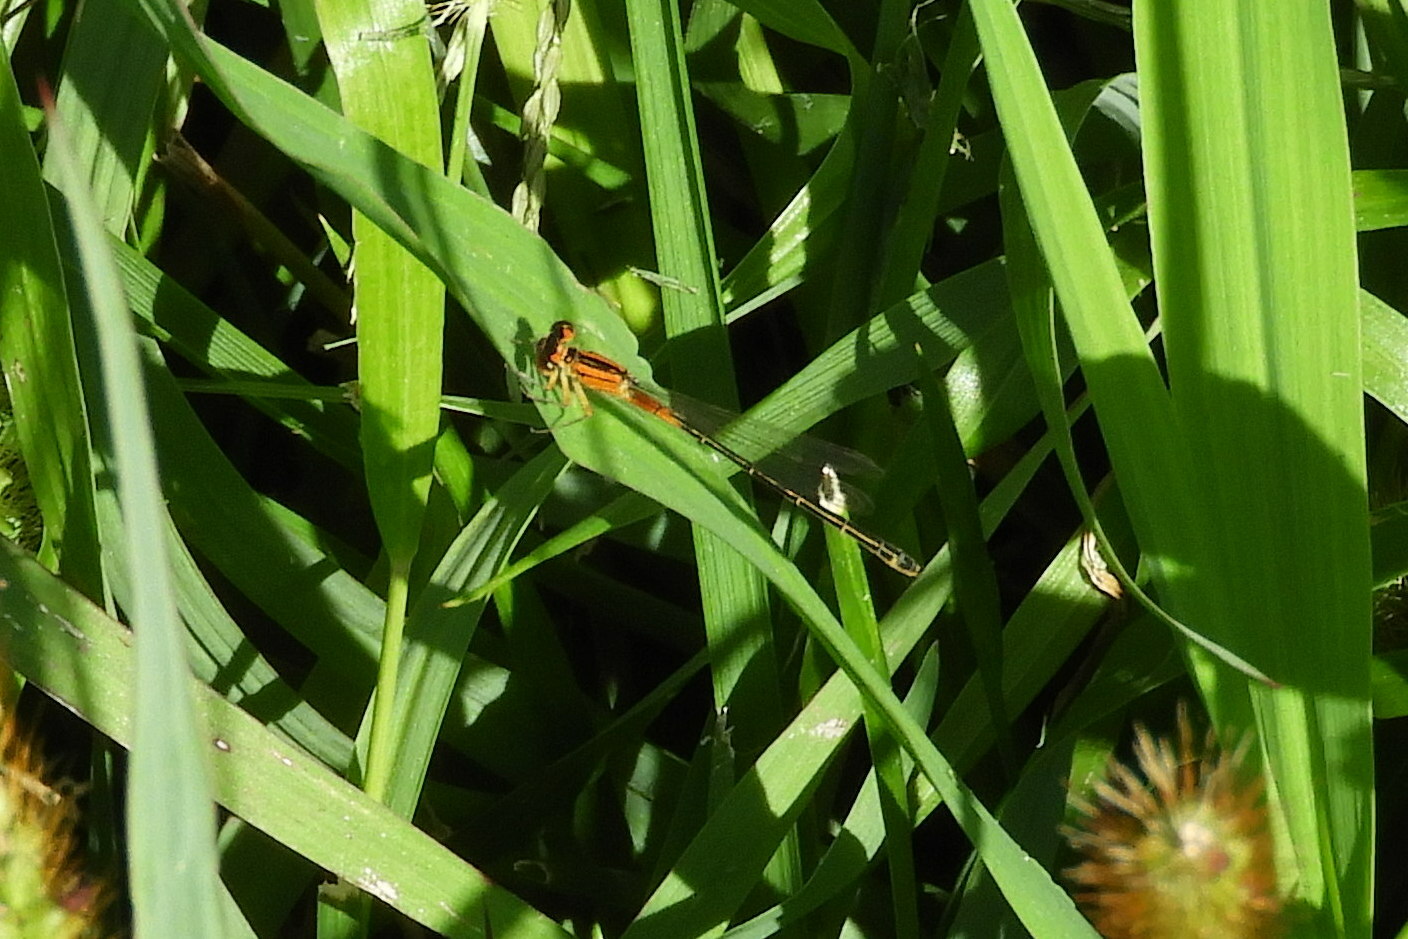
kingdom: Animalia
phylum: Arthropoda
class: Insecta
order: Odonata
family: Coenagrionidae
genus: Ischnura
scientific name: Ischnura verticalis
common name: Eastern forktail
